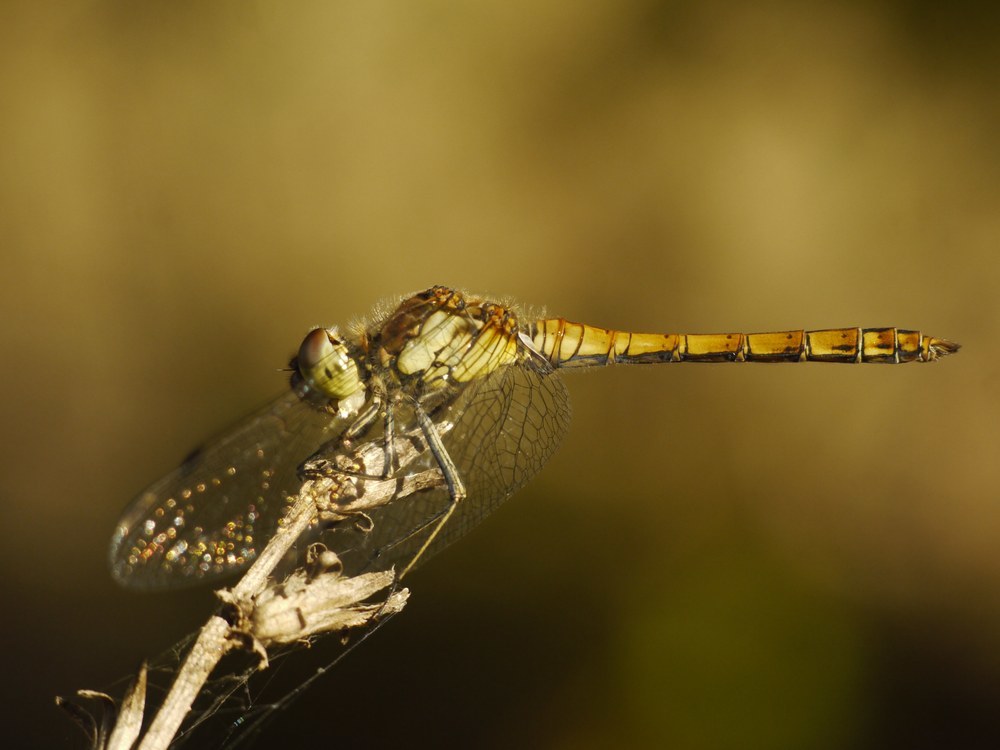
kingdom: Animalia
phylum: Arthropoda
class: Insecta
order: Odonata
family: Libellulidae
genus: Sympetrum
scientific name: Sympetrum striolatum
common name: Common darter
